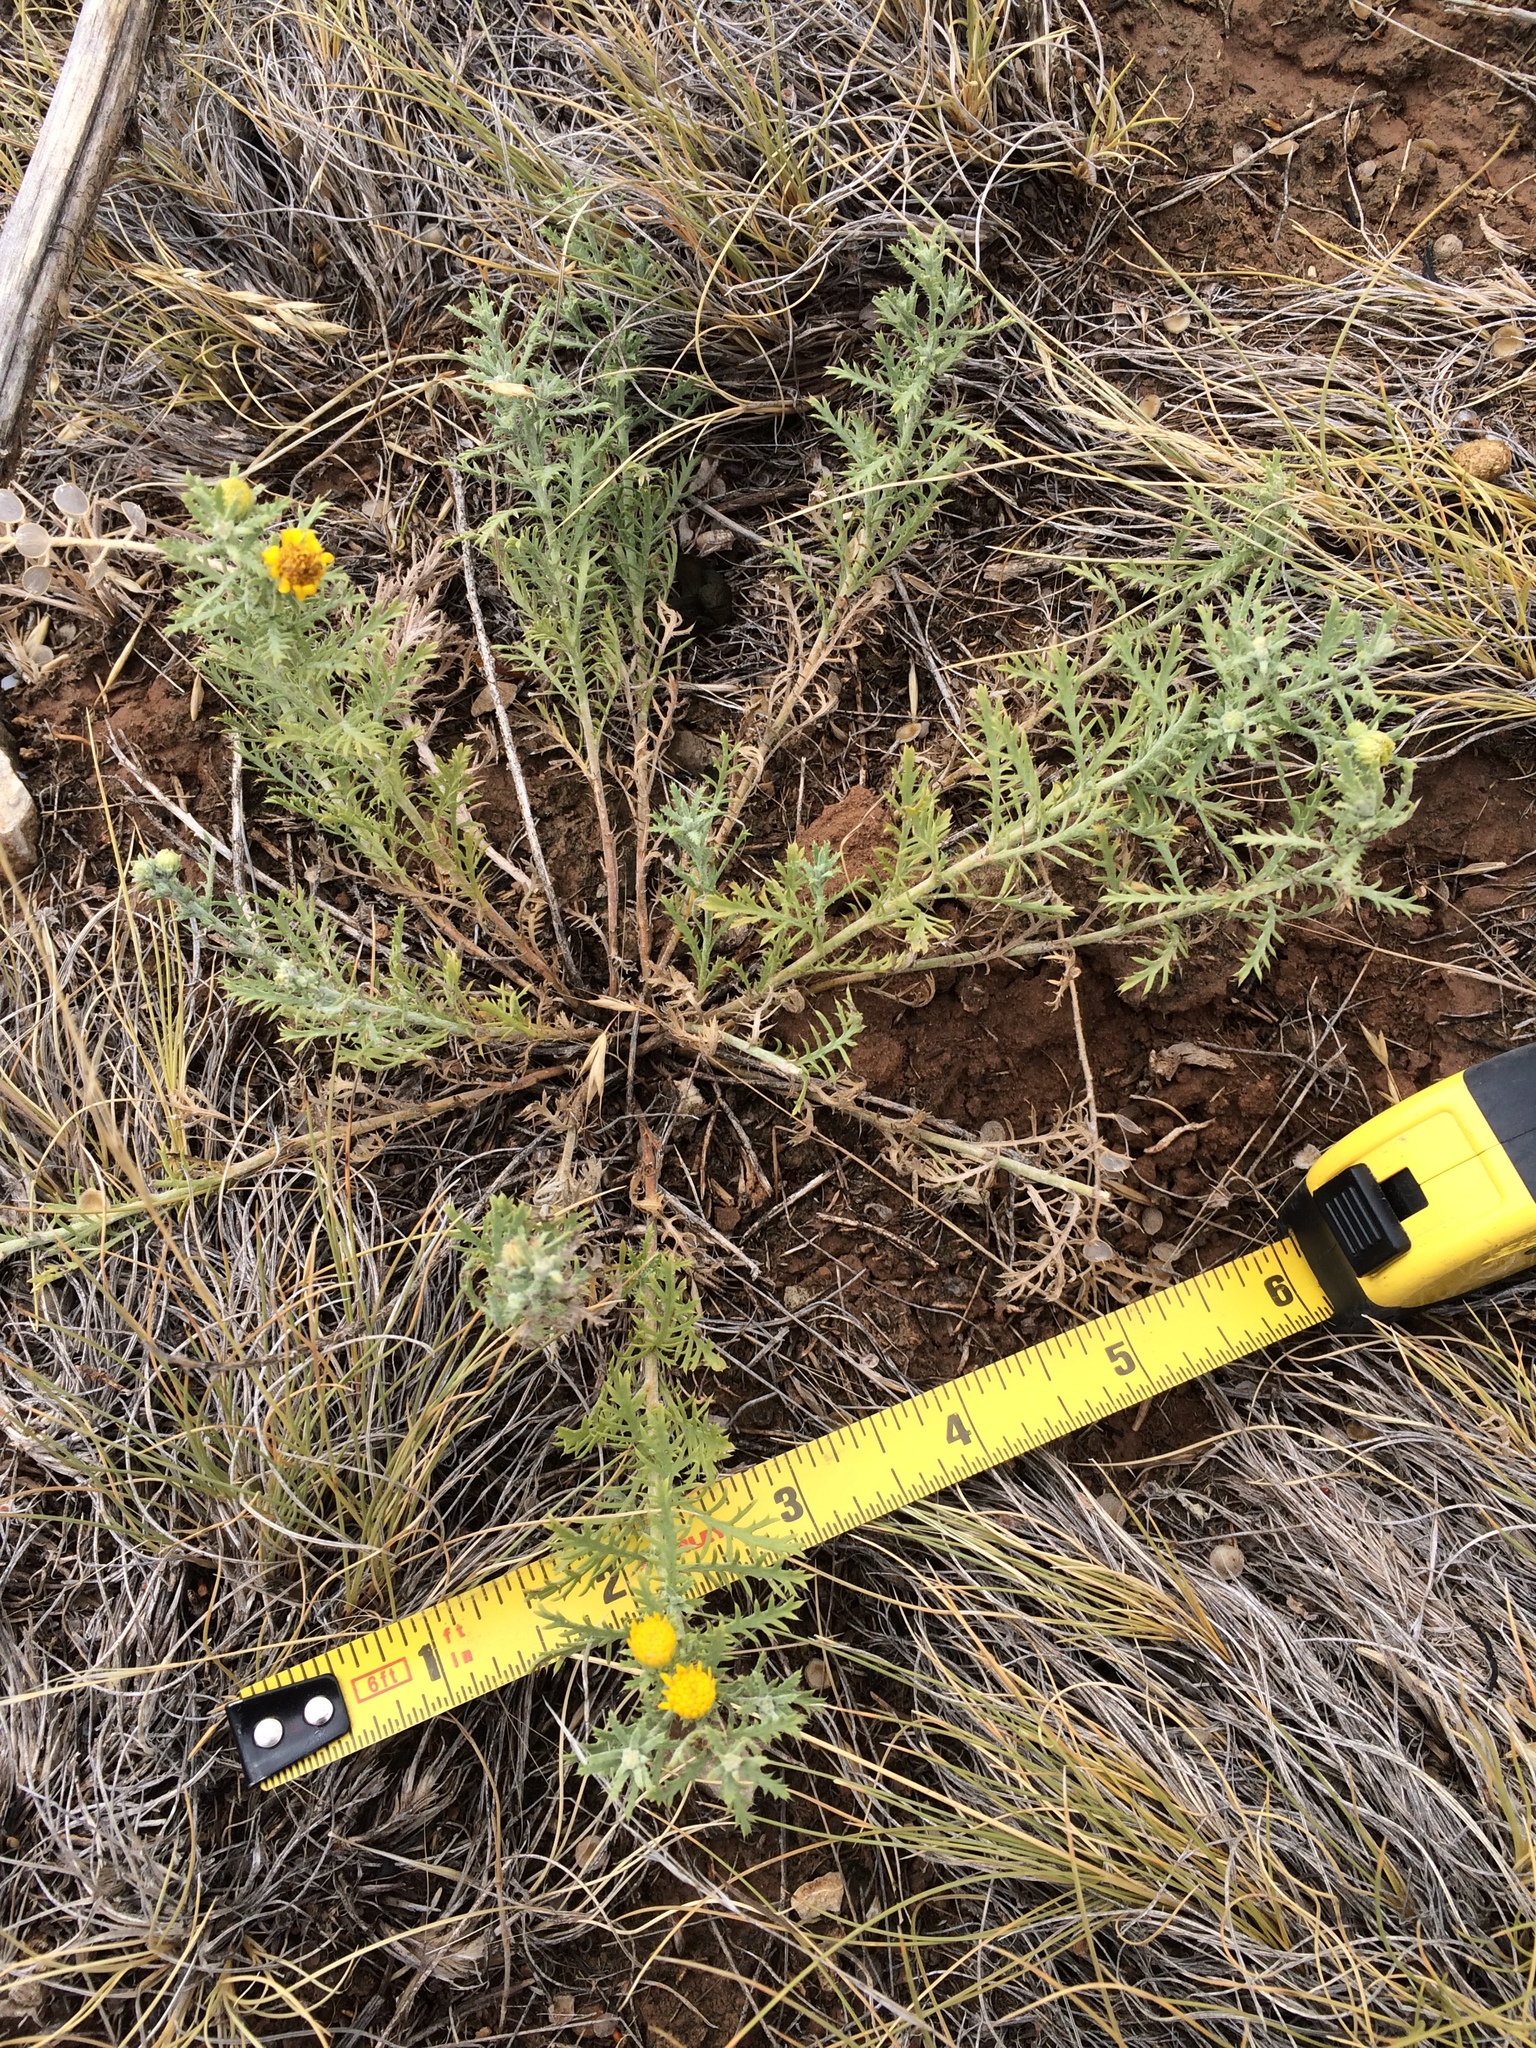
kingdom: Plantae
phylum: Tracheophyta
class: Magnoliopsida
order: Asterales
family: Asteraceae
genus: Xanthisma
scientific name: Xanthisma spinulosum
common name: Spiny goldenweed
